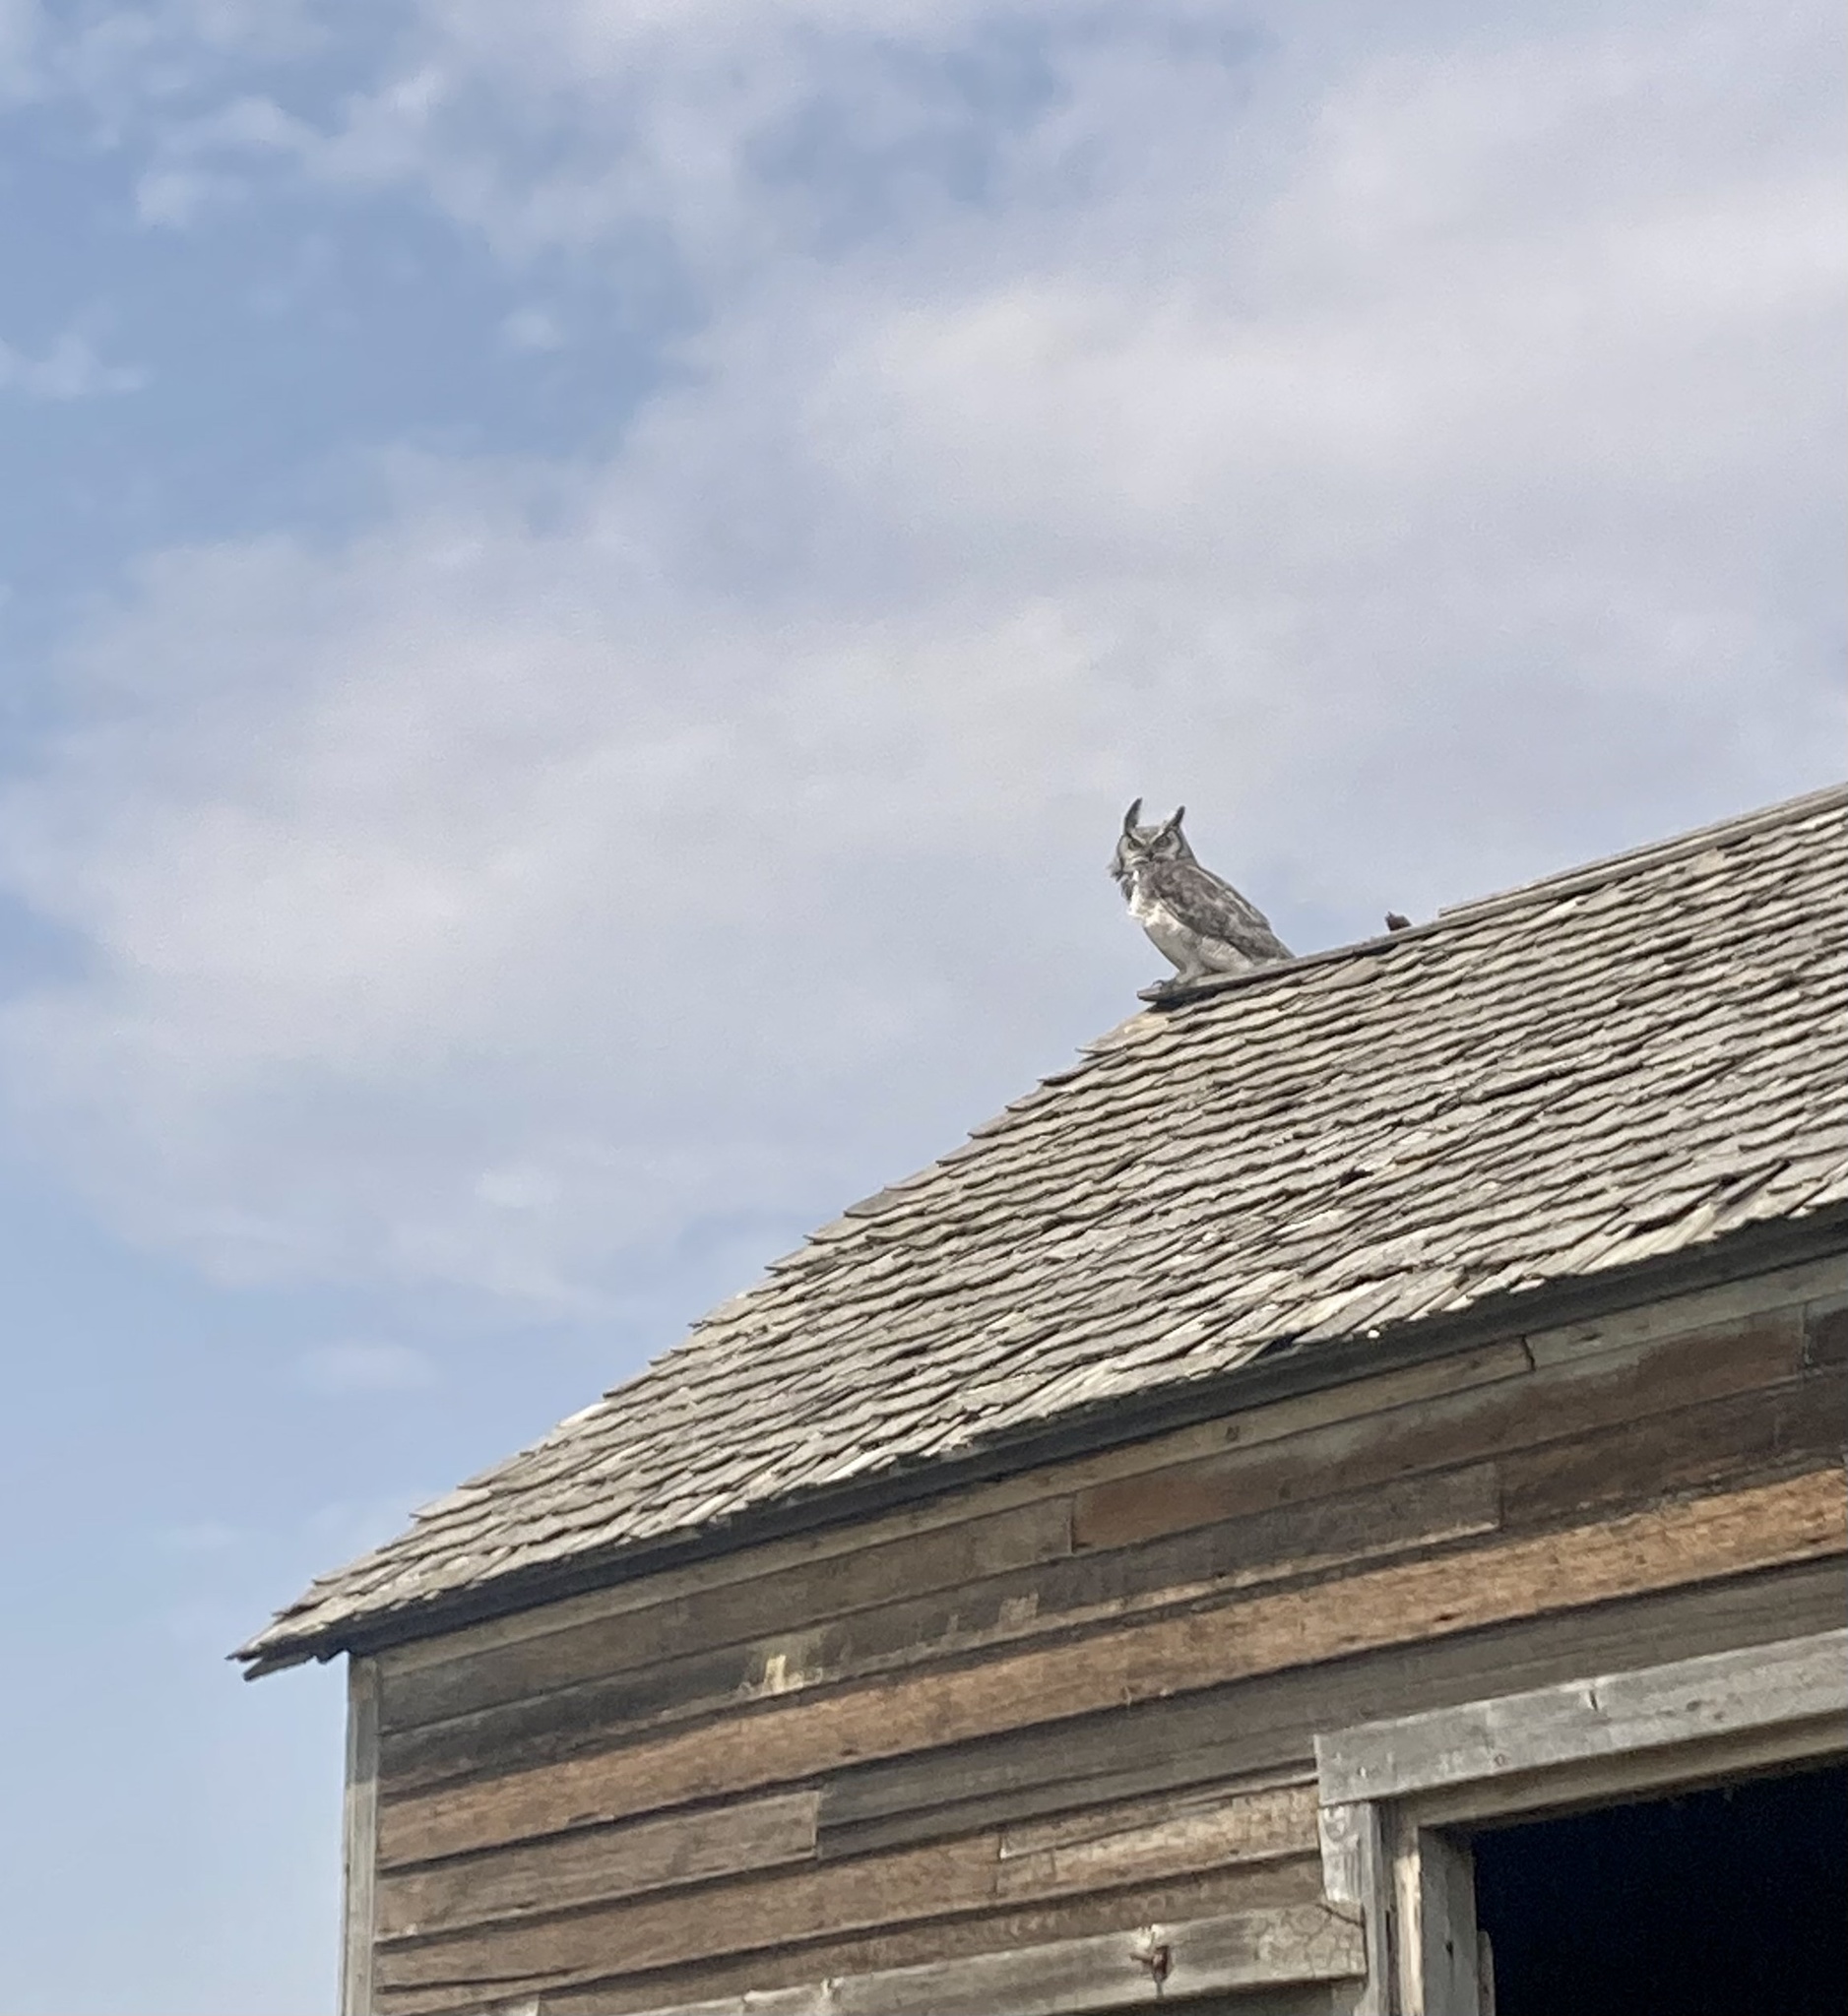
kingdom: Animalia
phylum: Chordata
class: Aves
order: Strigiformes
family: Strigidae
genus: Bubo
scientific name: Bubo virginianus
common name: Great horned owl
